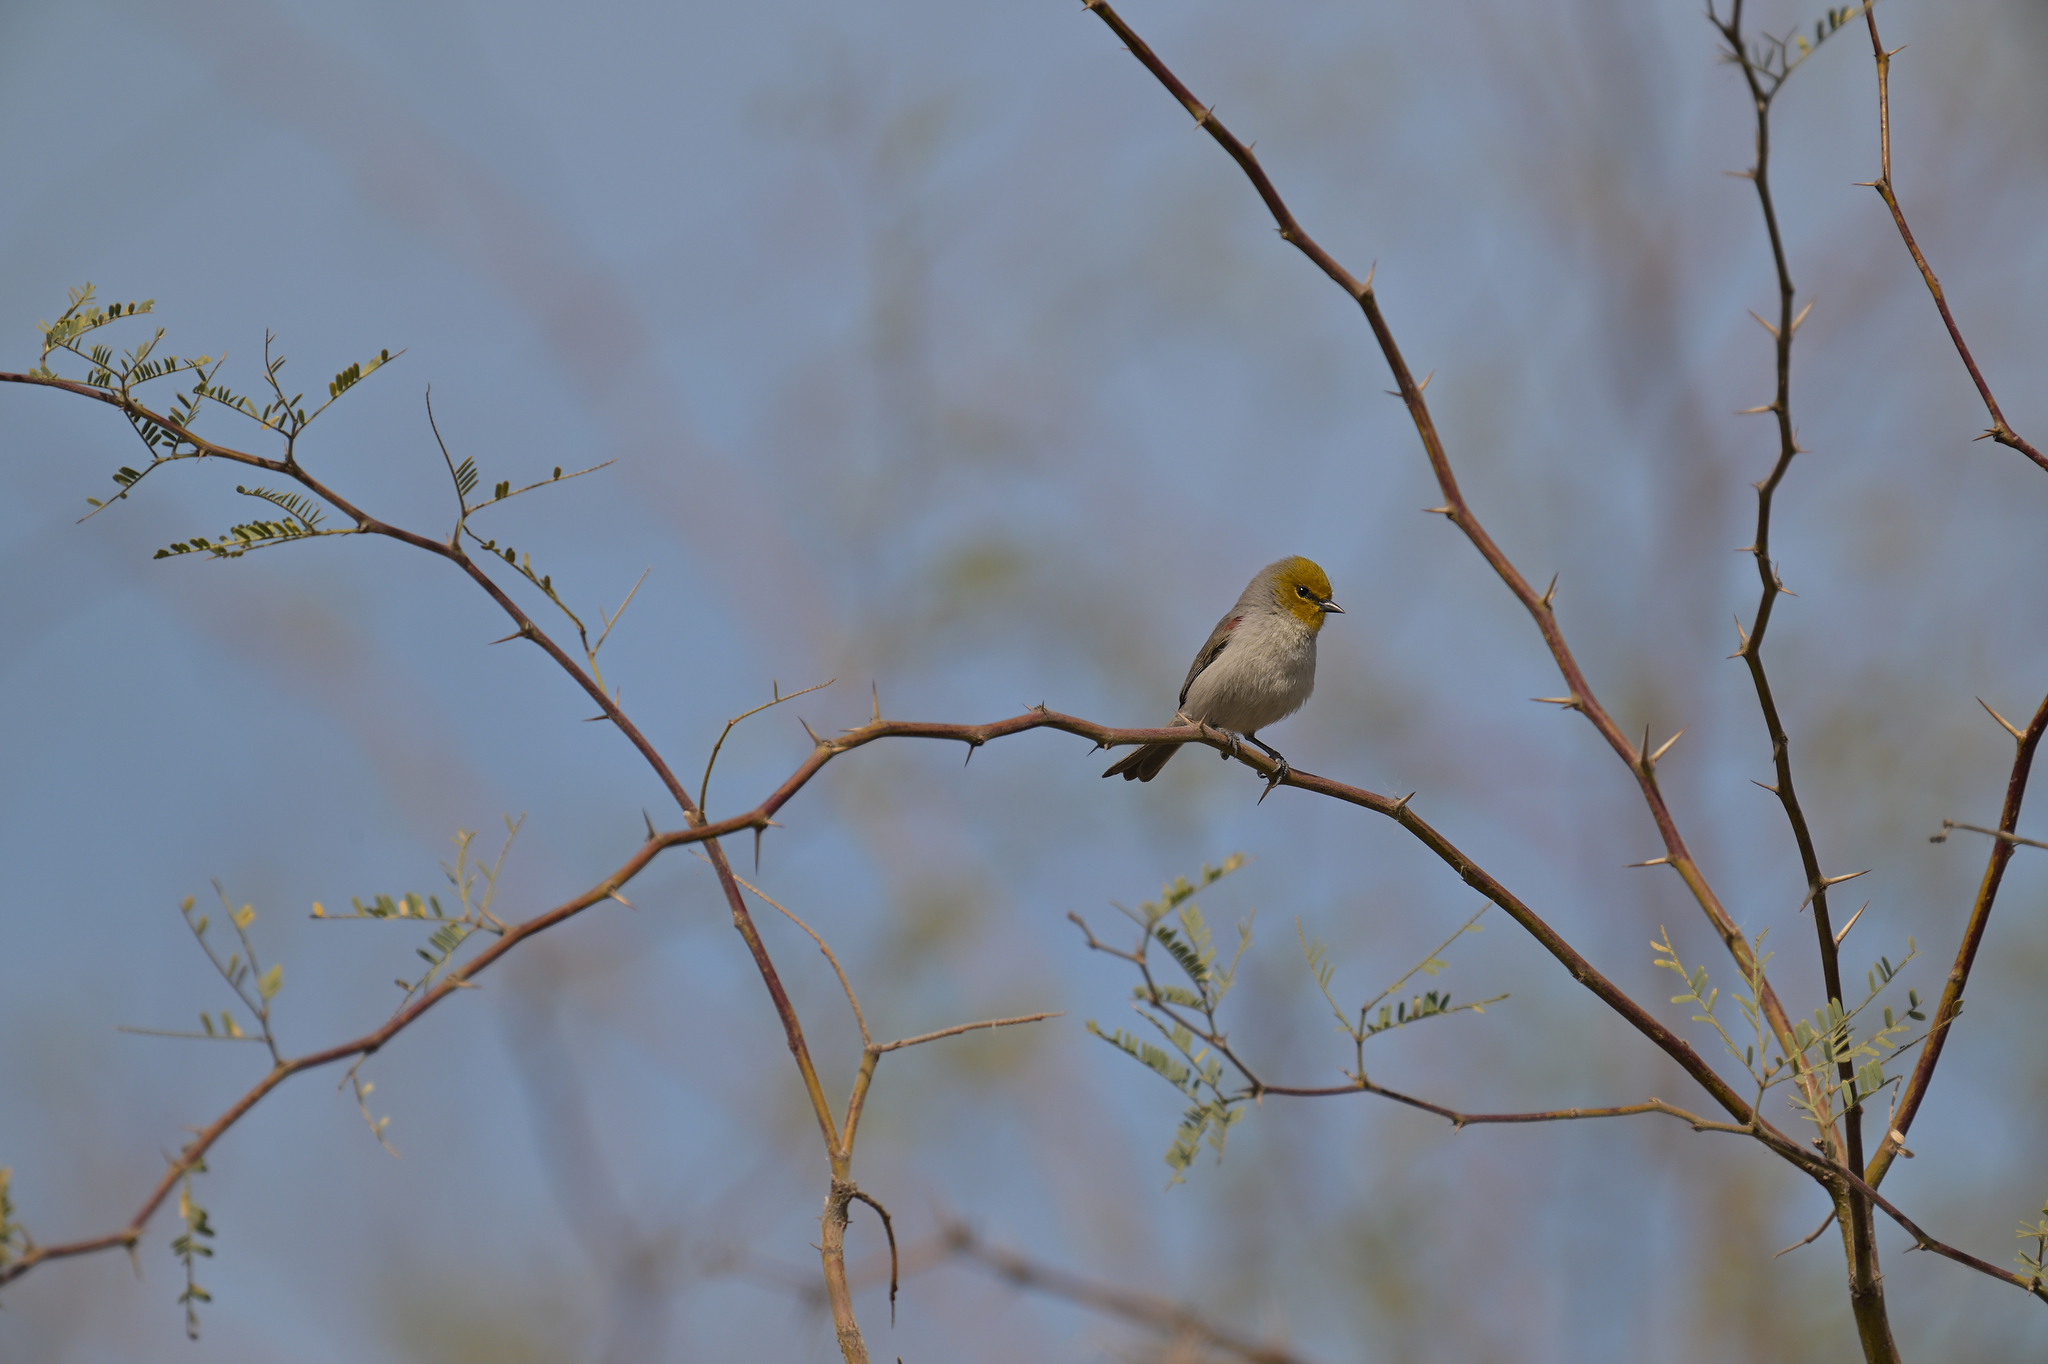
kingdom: Animalia
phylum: Chordata
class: Aves
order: Passeriformes
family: Remizidae
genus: Auriparus
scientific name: Auriparus flaviceps
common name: Verdin
